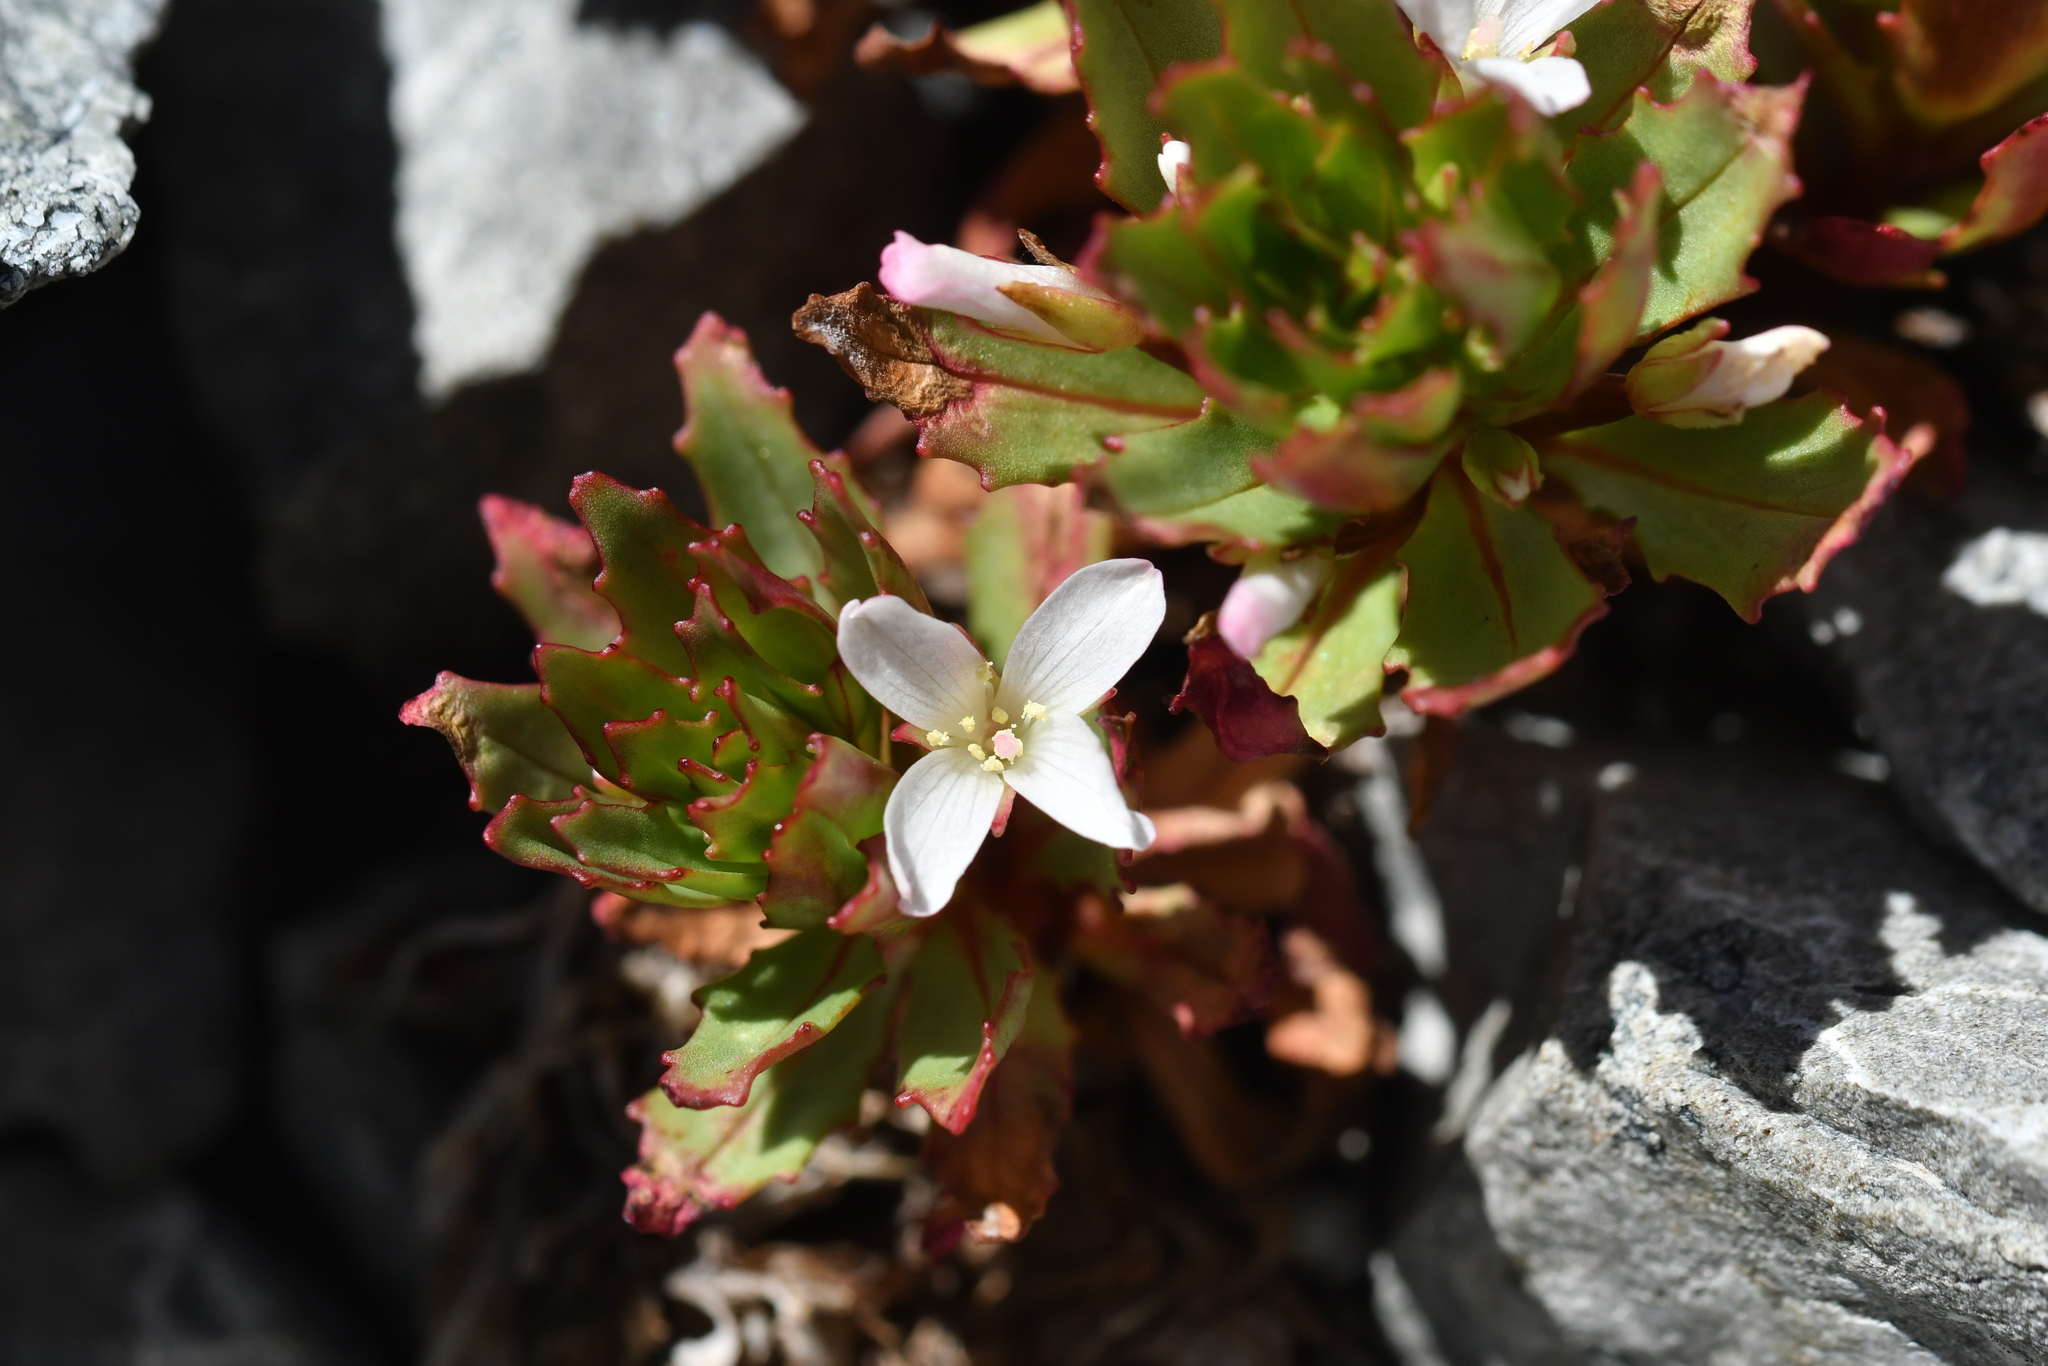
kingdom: Plantae
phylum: Tracheophyta
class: Magnoliopsida
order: Myrtales
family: Onagraceae
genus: Epilobium
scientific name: Epilobium pycnostachyum
